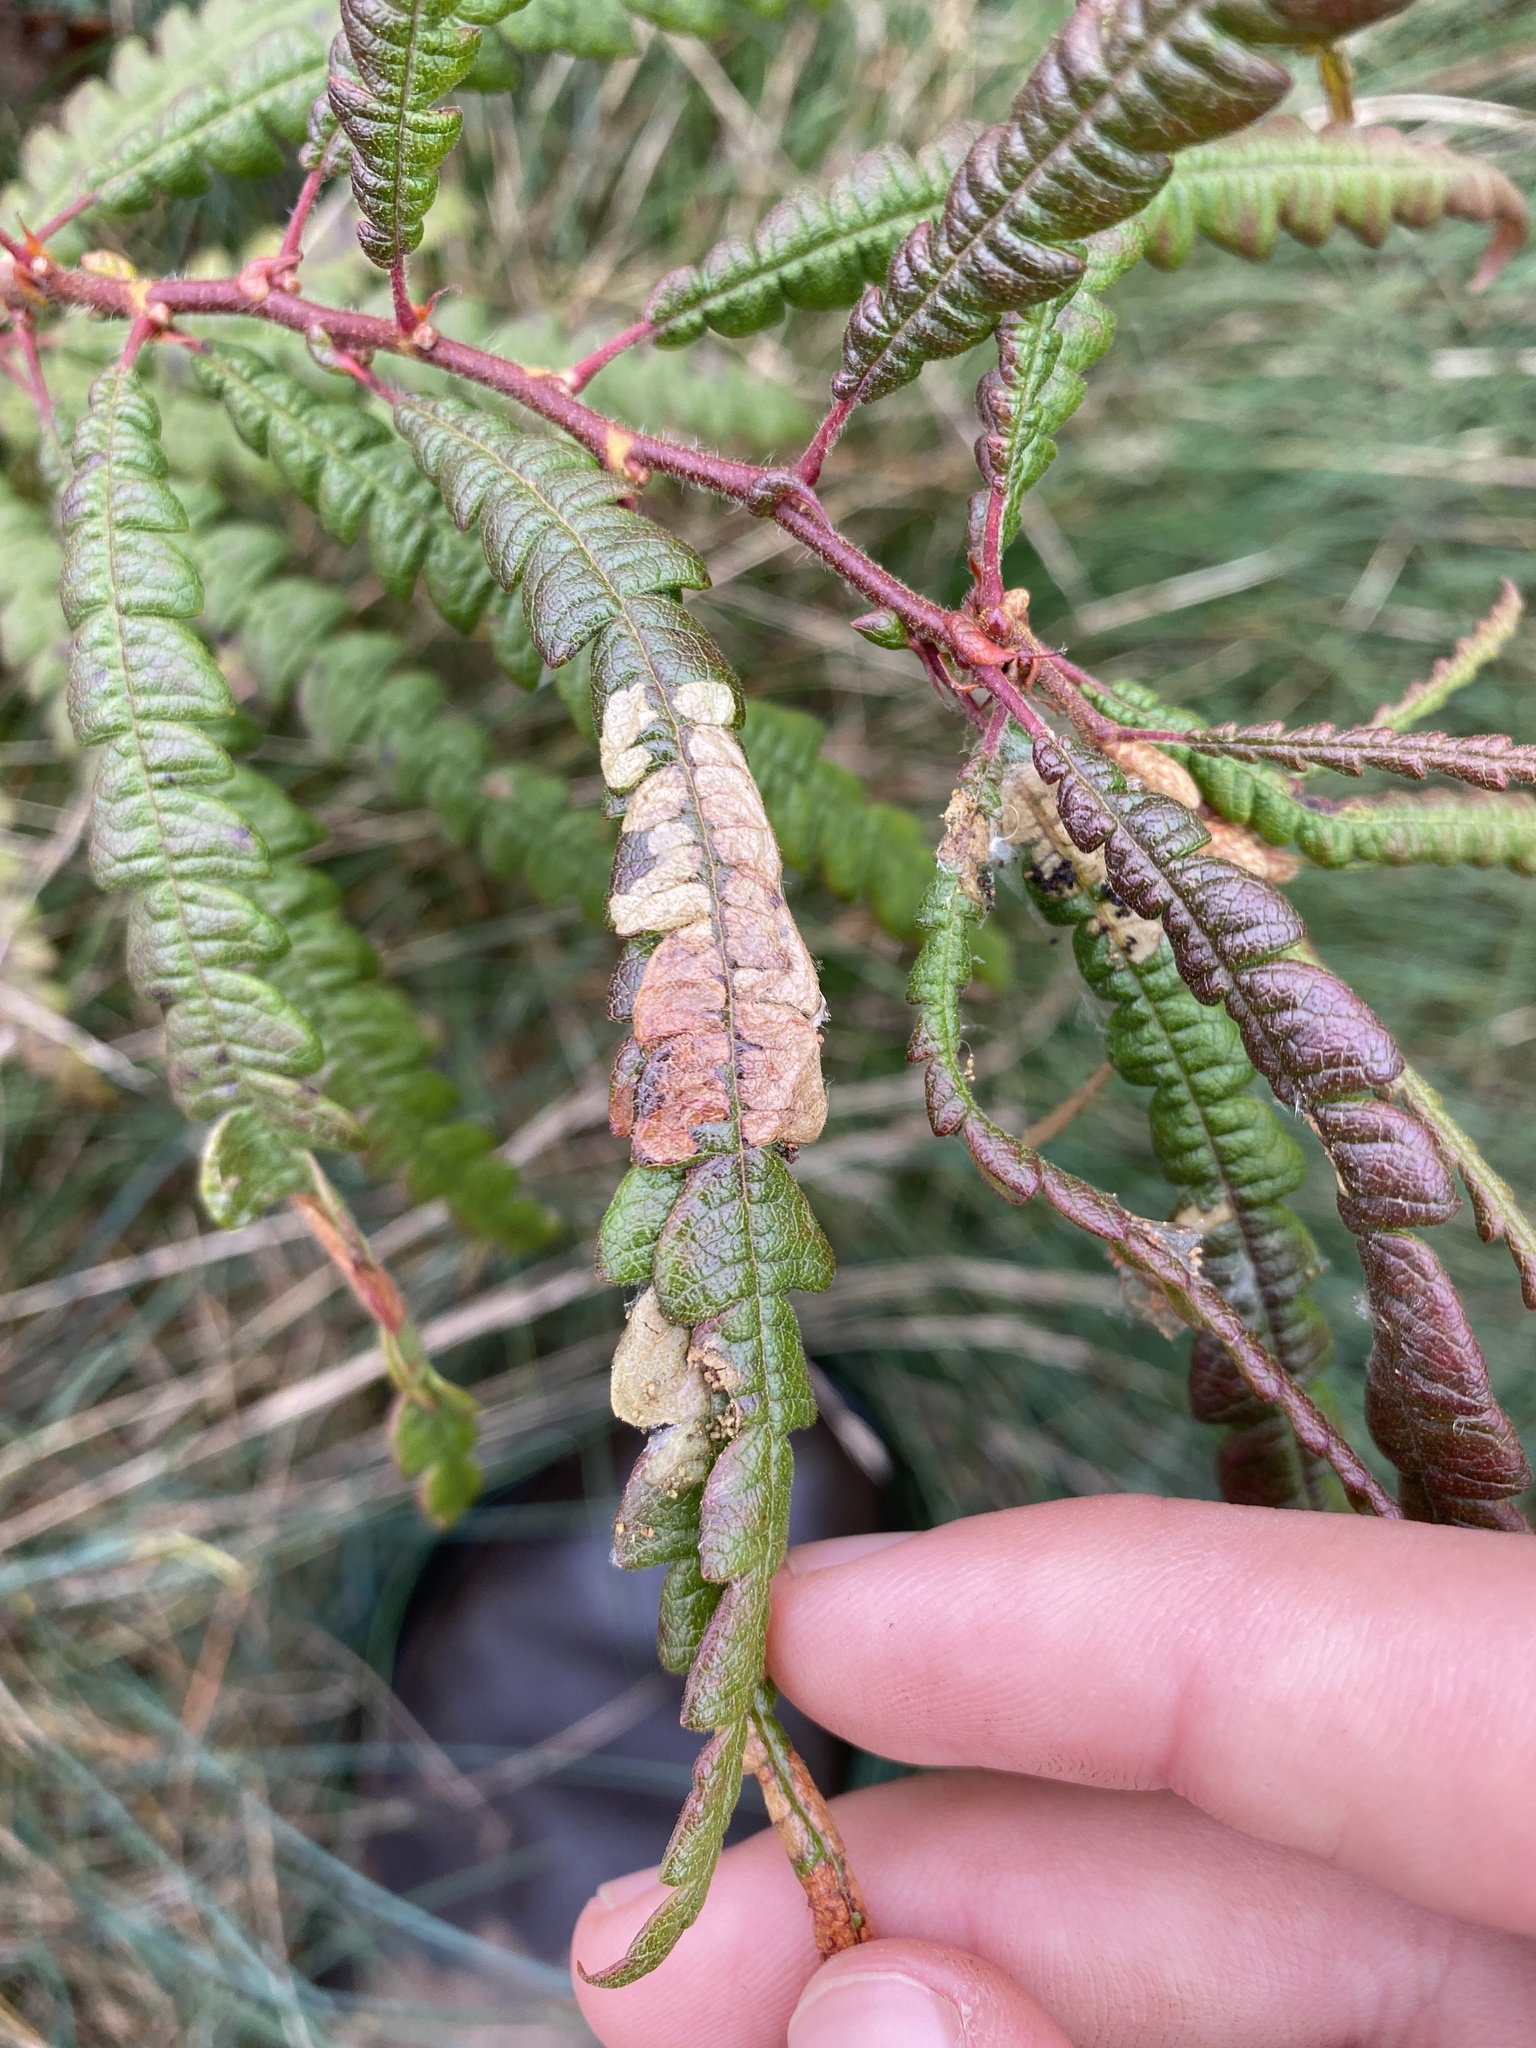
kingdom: Plantae
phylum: Tracheophyta
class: Magnoliopsida
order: Fagales
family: Myricaceae
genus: Comptonia
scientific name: Comptonia peregrina
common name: Sweet-fern
